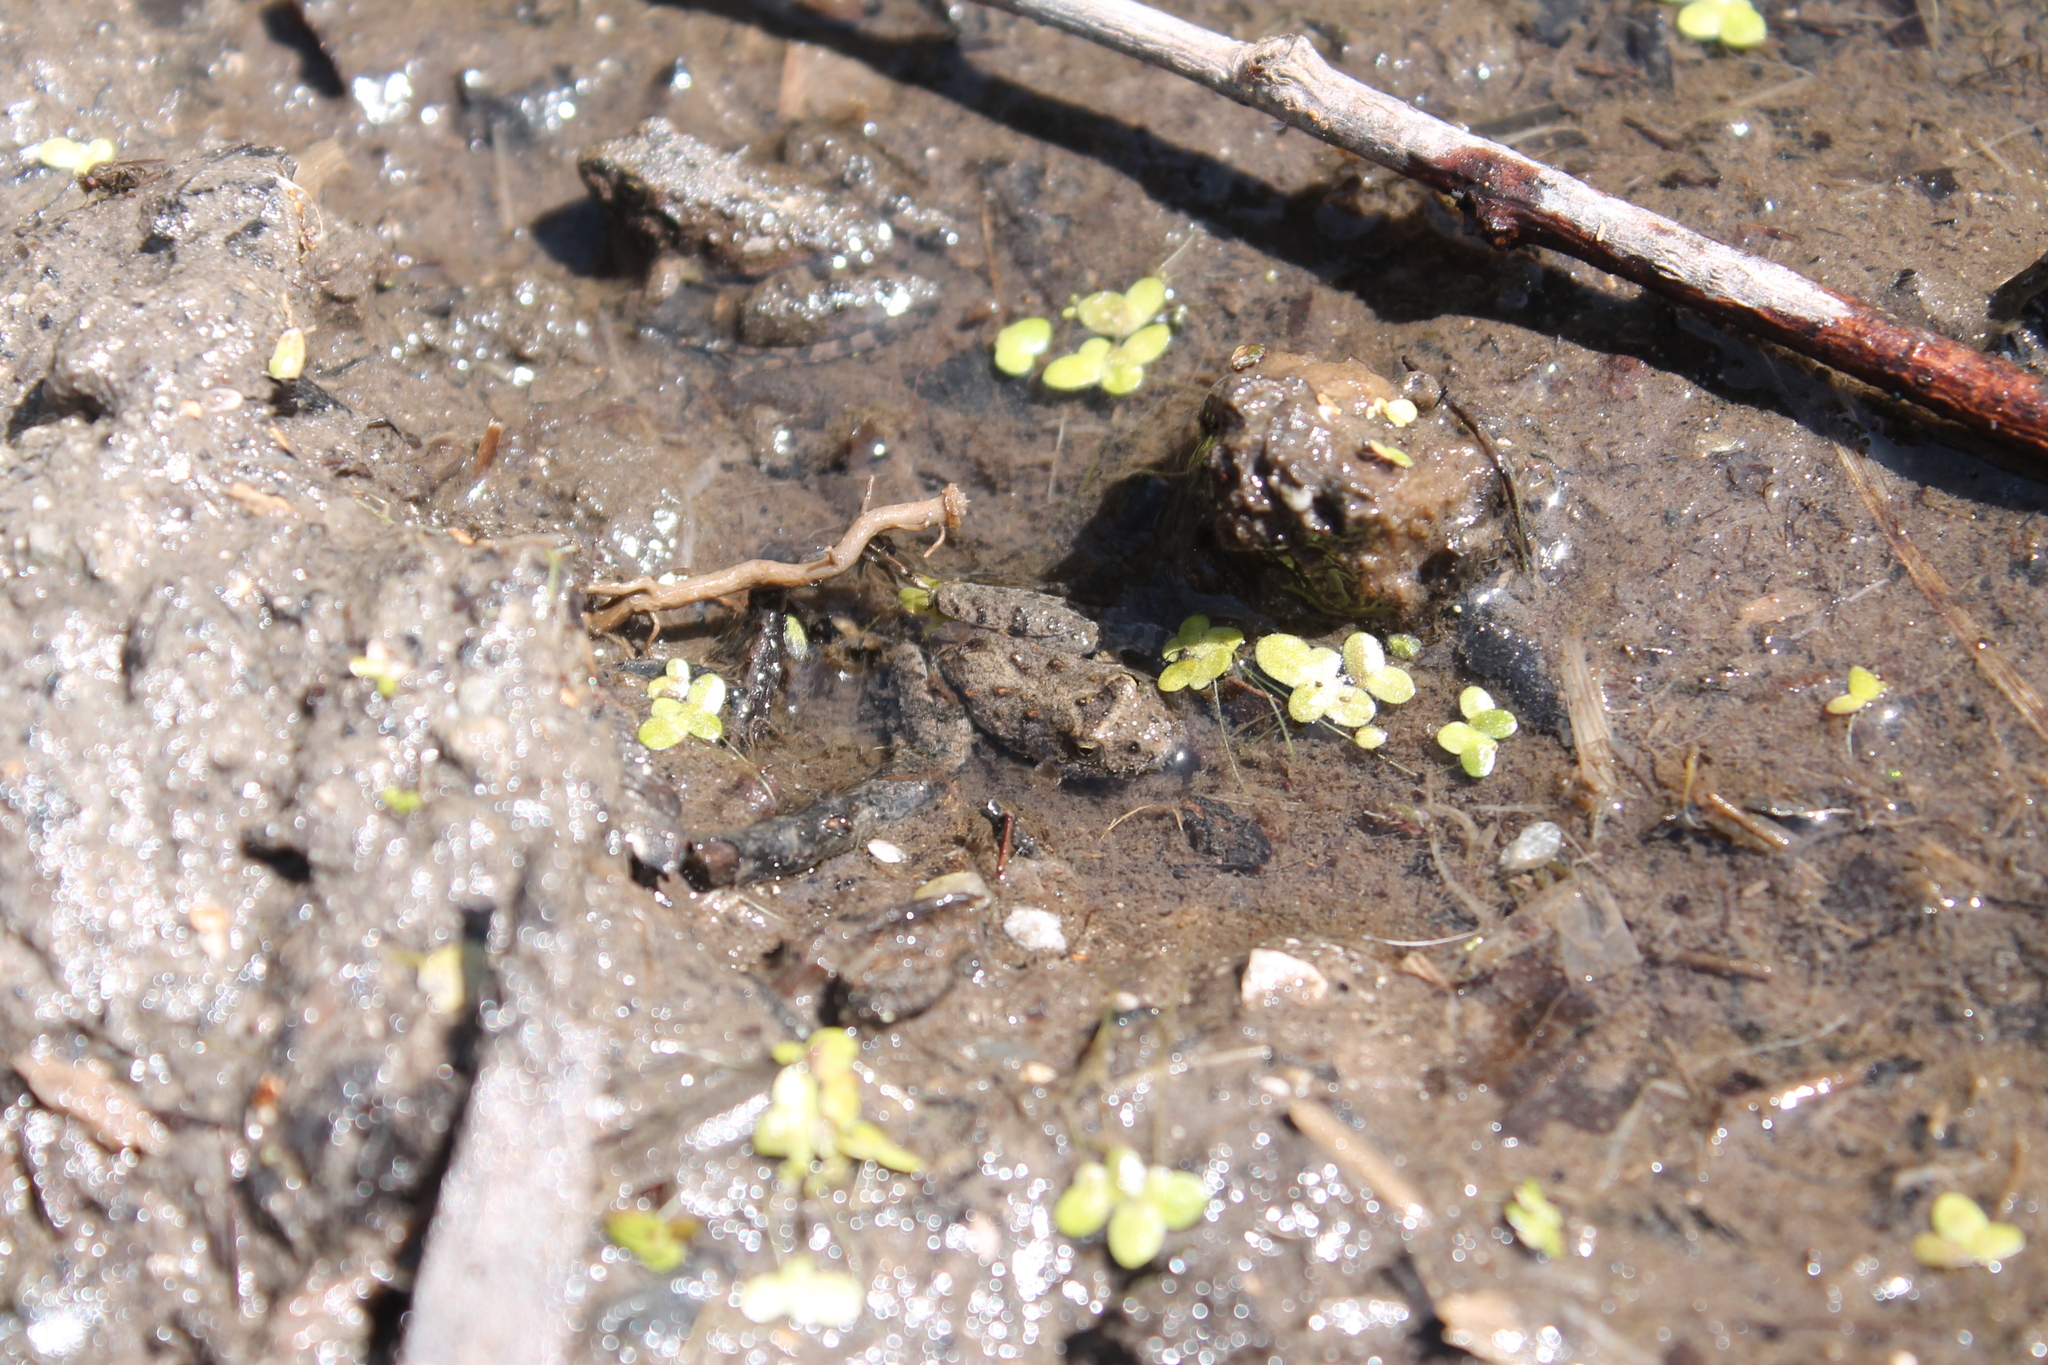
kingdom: Animalia
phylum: Chordata
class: Amphibia
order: Anura
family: Hylidae
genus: Acris
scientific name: Acris blanchardi
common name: Blanchard's cricket frog
